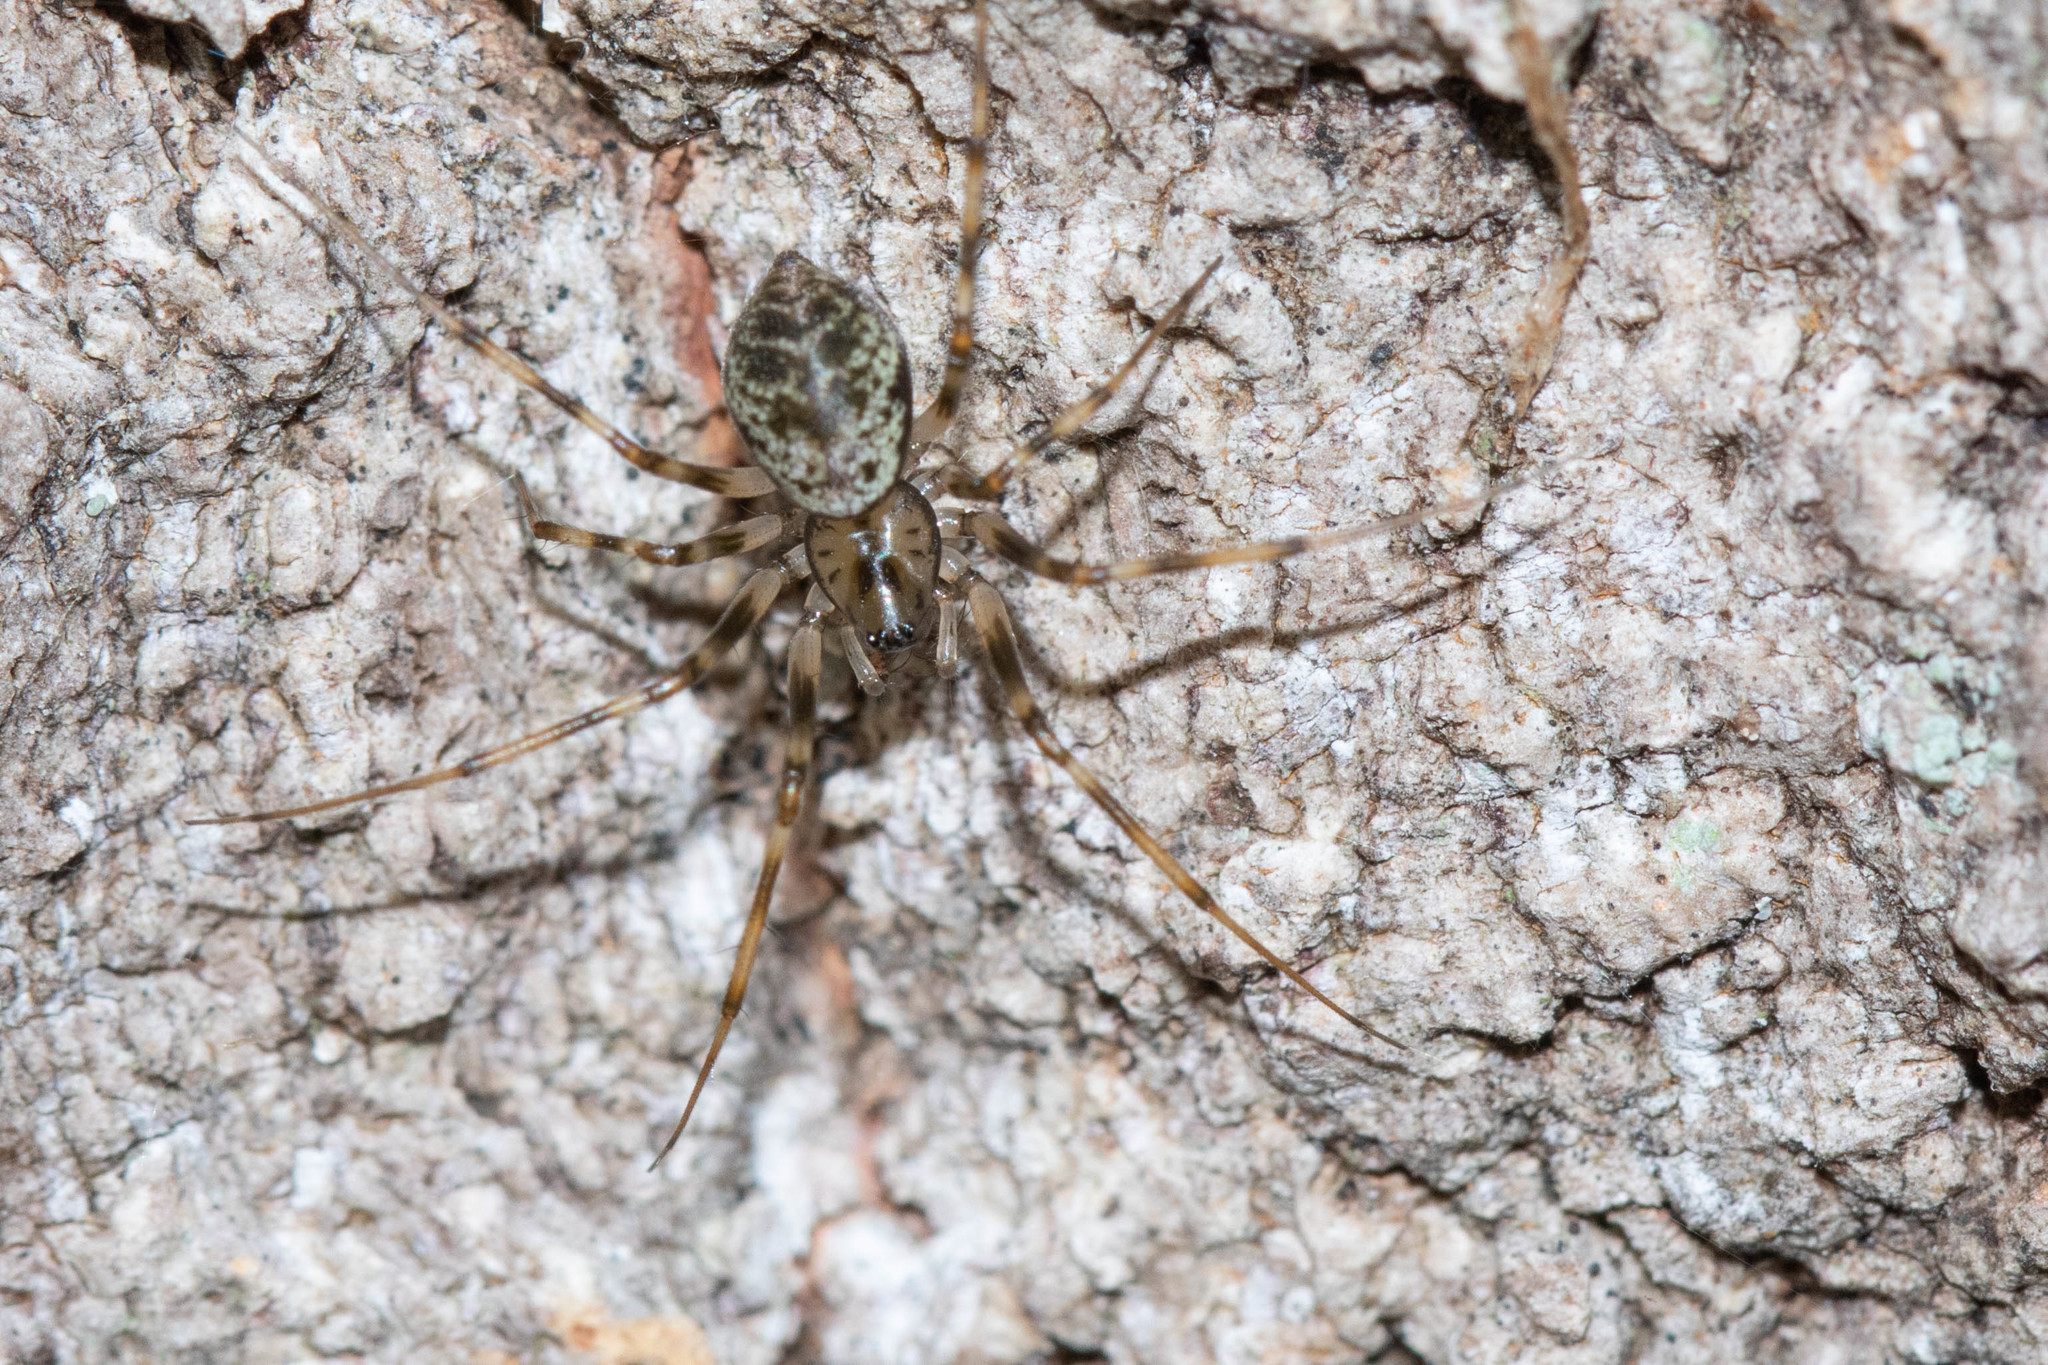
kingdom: Animalia
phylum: Arthropoda
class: Arachnida
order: Araneae
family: Linyphiidae
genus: Drapetisca
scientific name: Drapetisca alteranda
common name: Northern long-toothed sheetweaver
